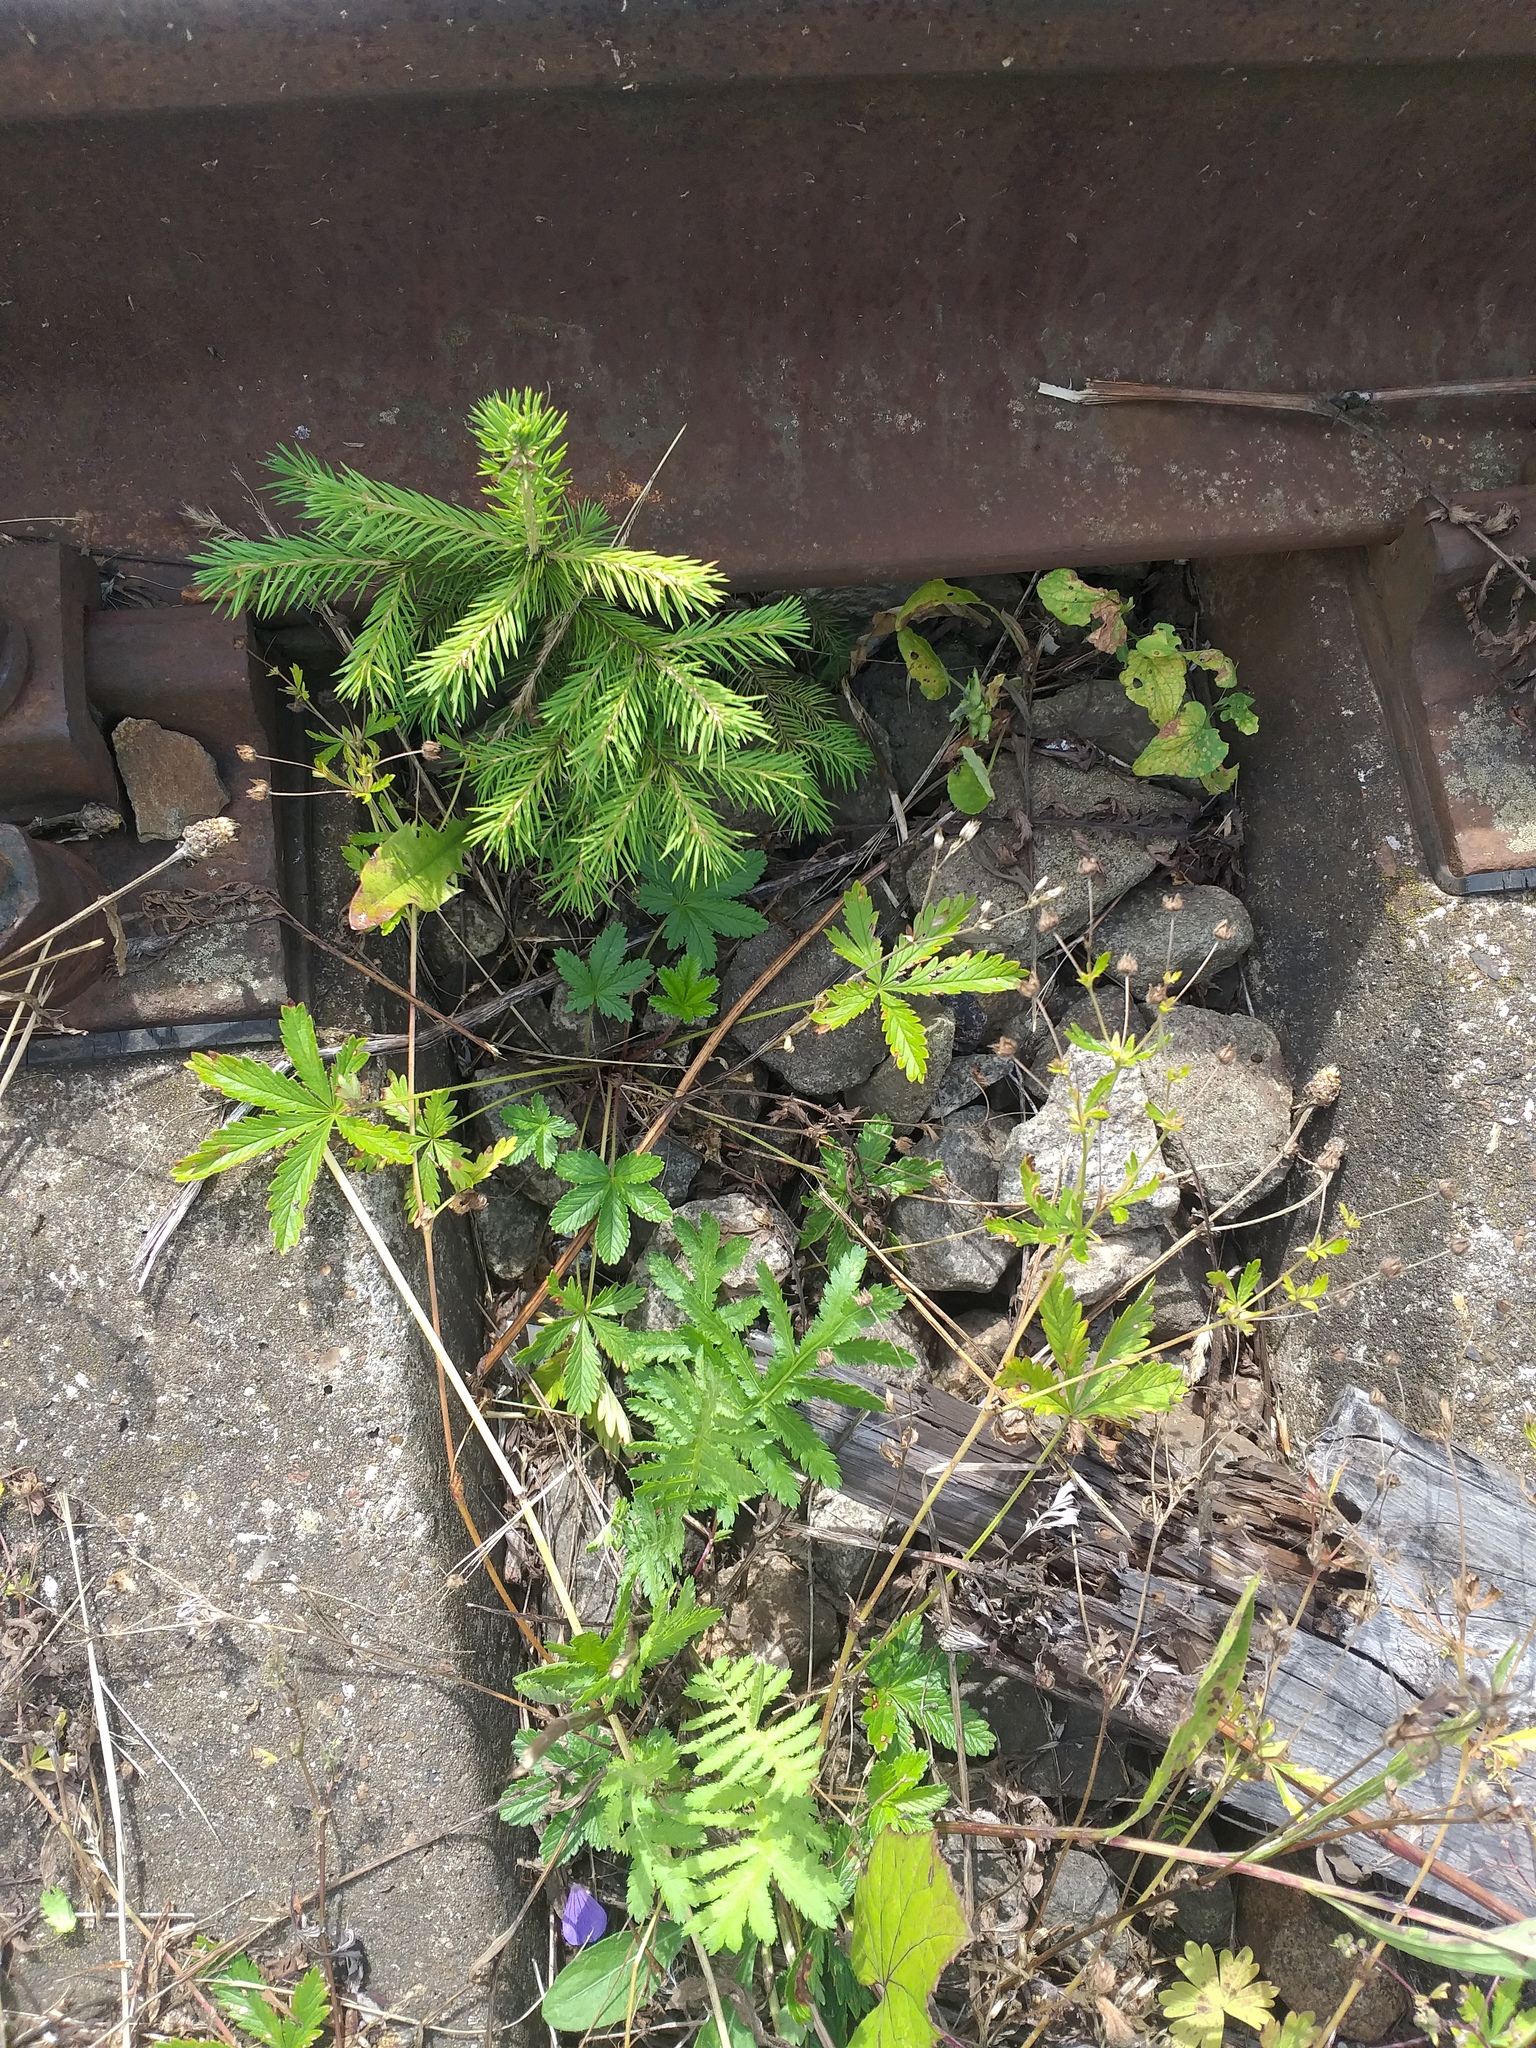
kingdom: Plantae
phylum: Tracheophyta
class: Magnoliopsida
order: Rosales
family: Rosaceae
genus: Potentilla
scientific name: Potentilla thuringiaca
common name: European cinquefoil
